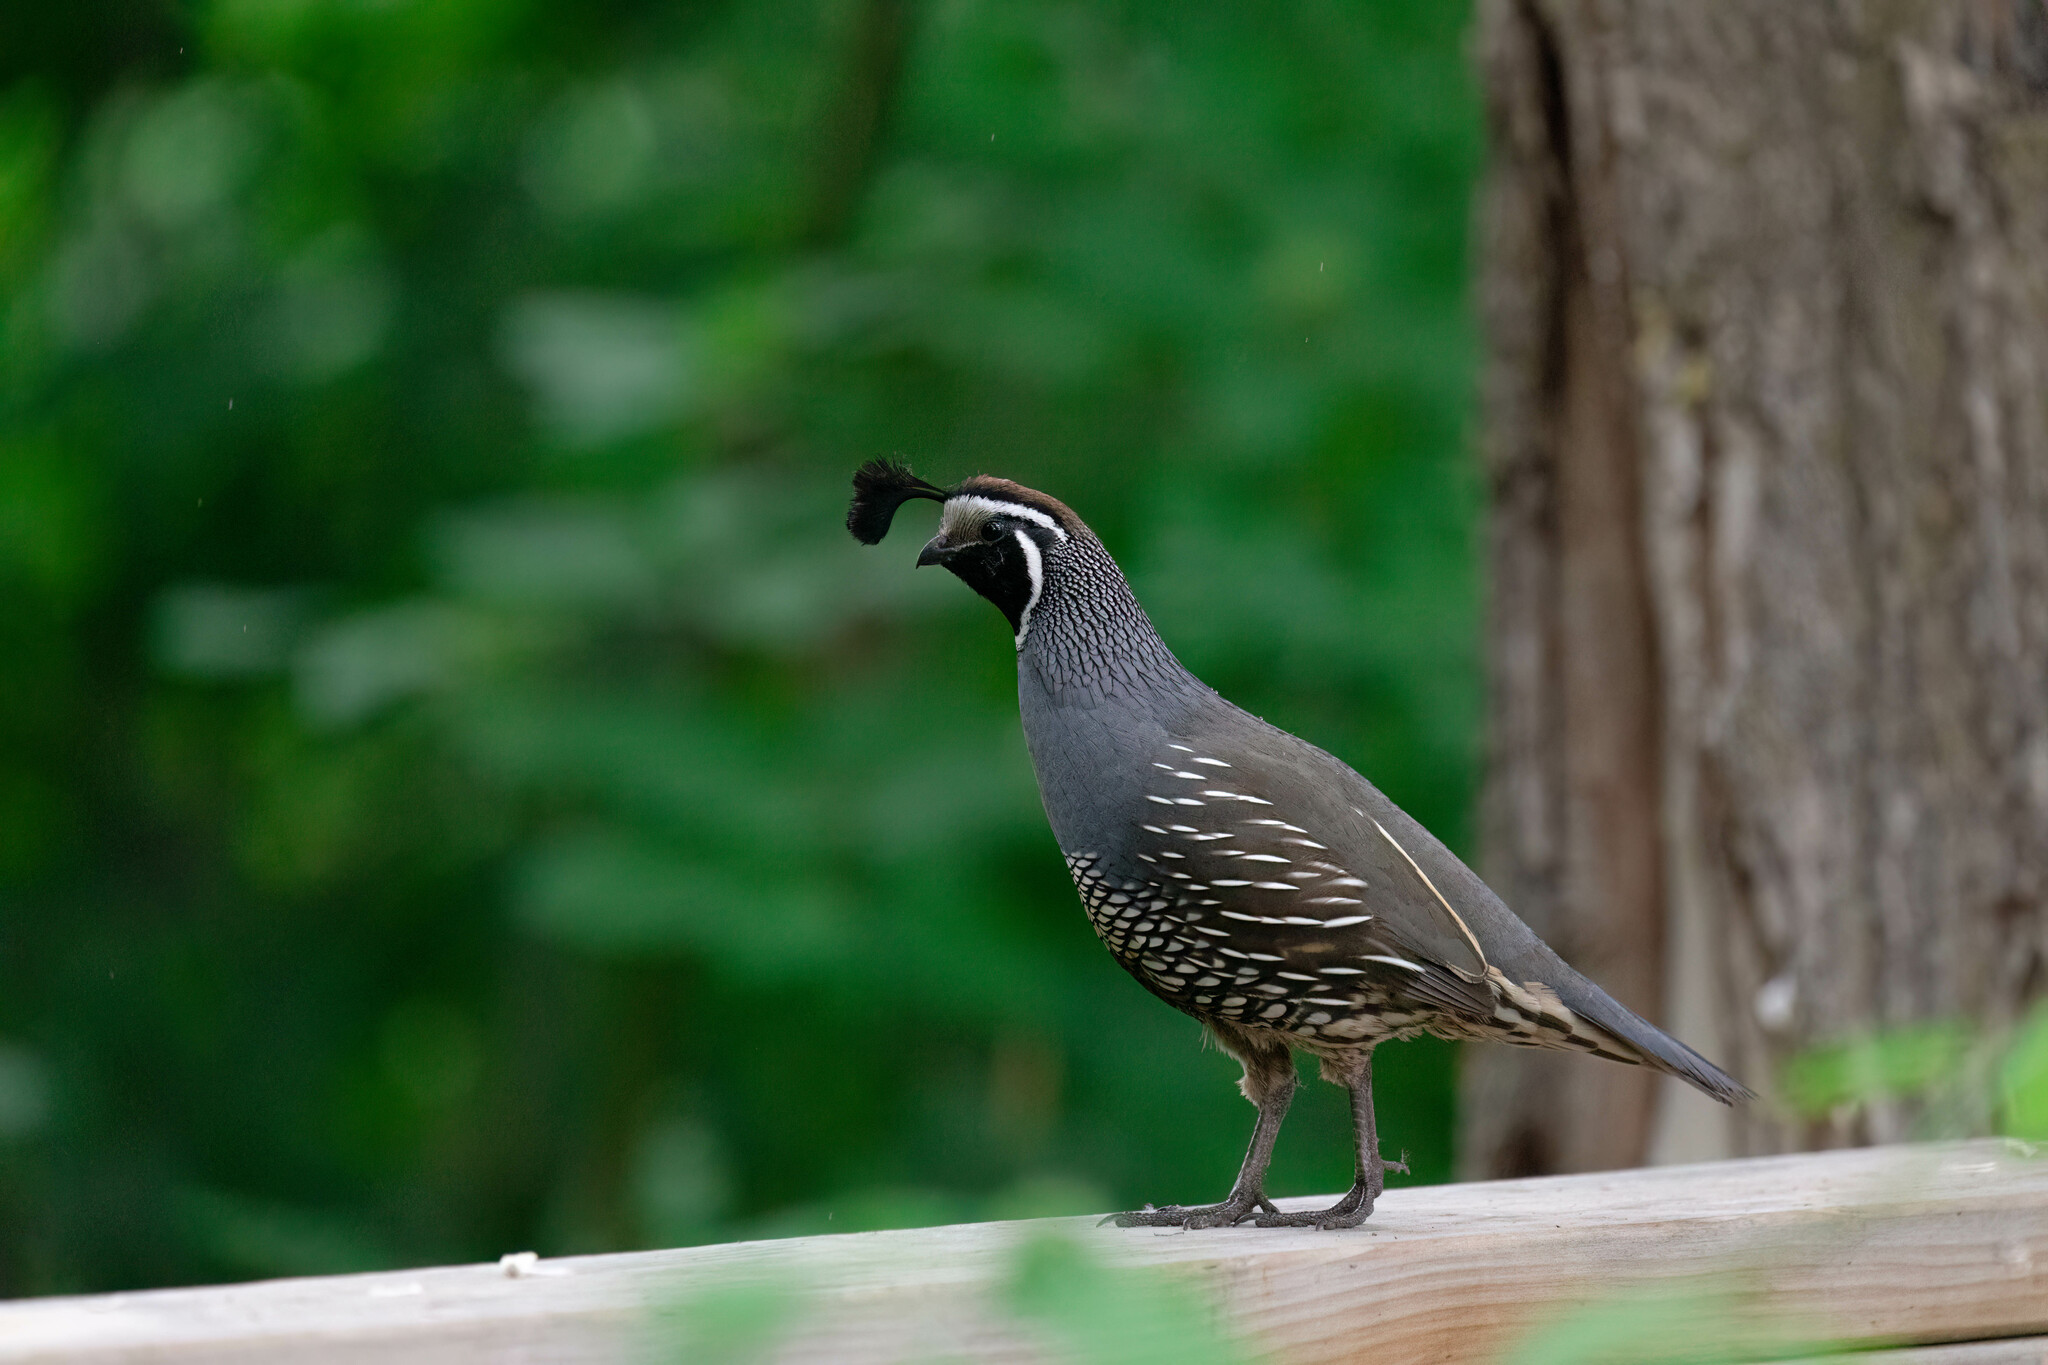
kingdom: Animalia
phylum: Chordata
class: Aves
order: Galliformes
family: Odontophoridae
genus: Callipepla
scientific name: Callipepla californica
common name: California quail
